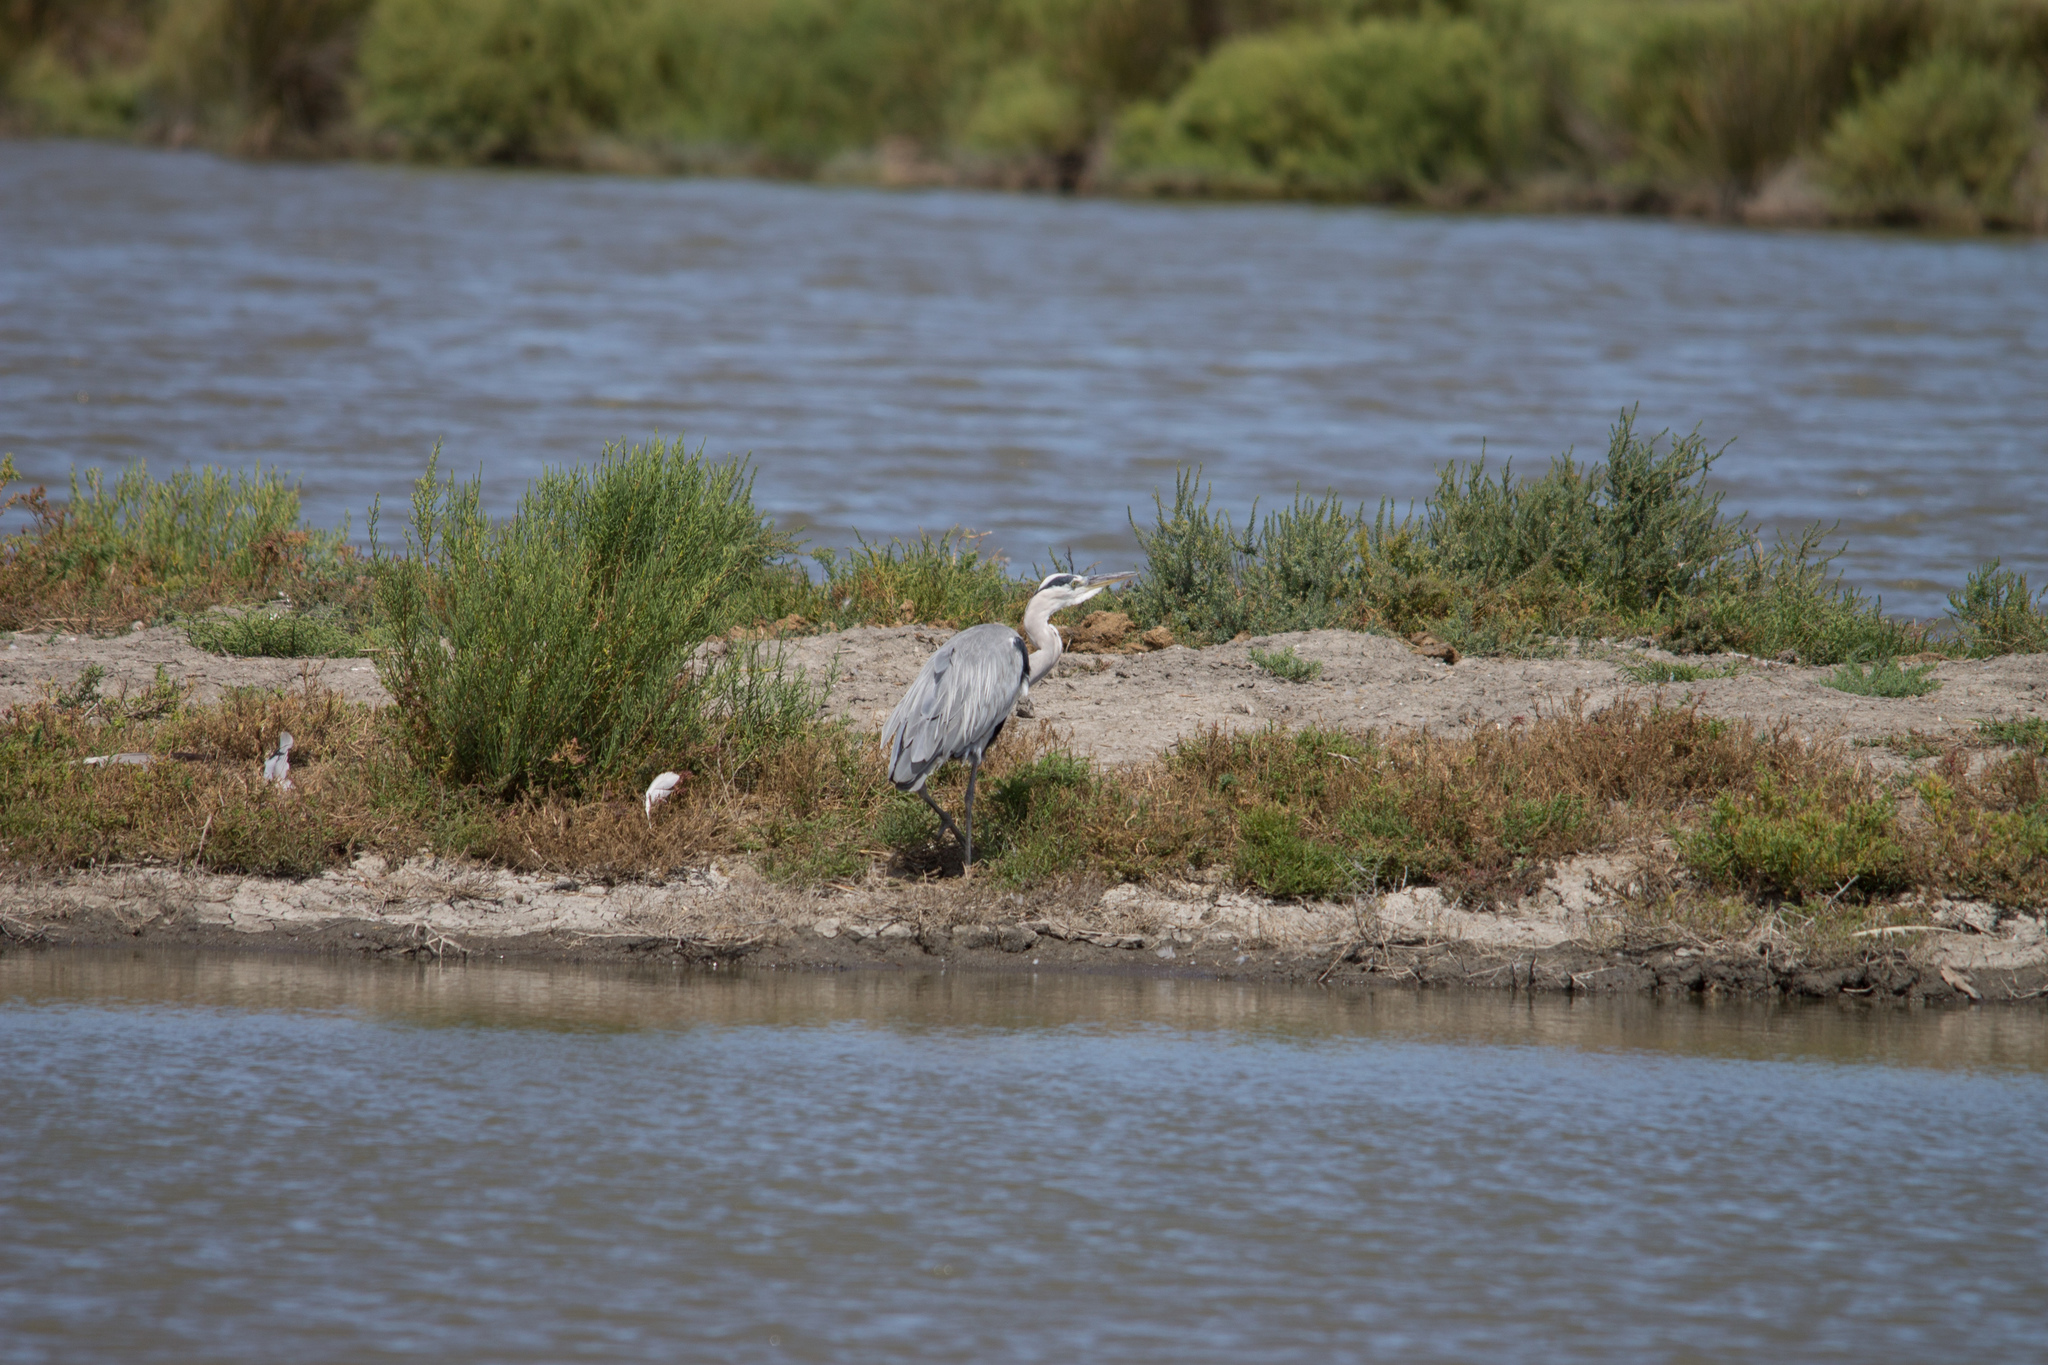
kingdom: Animalia
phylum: Chordata
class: Aves
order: Pelecaniformes
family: Ardeidae
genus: Ardea
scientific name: Ardea cinerea
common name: Grey heron
